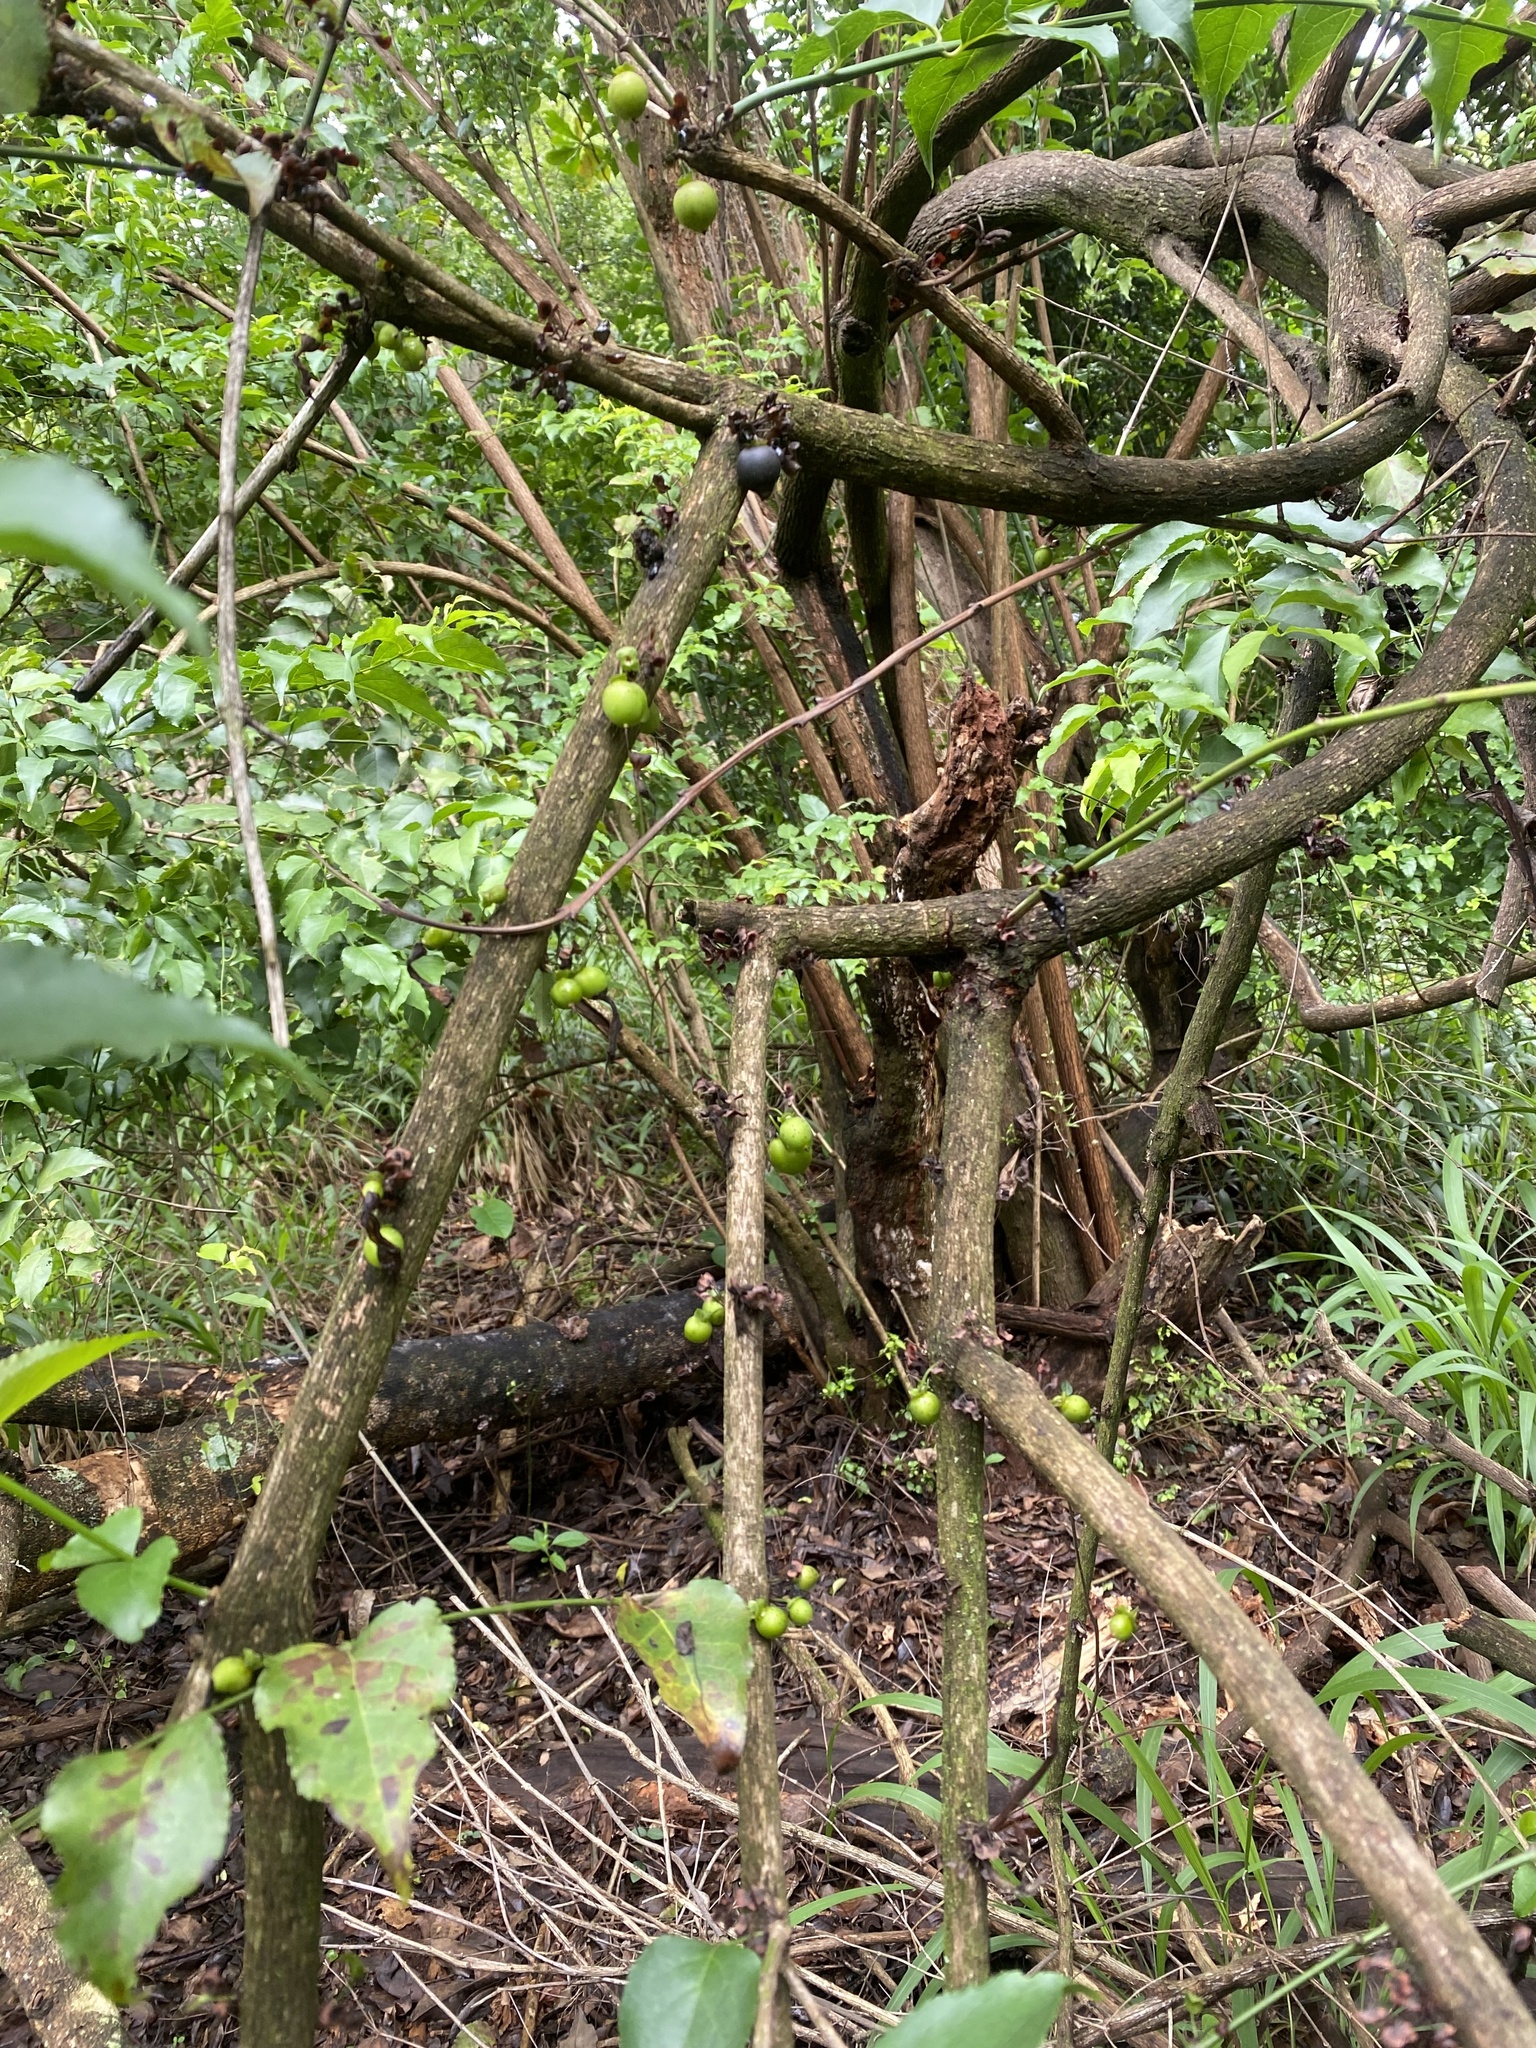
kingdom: Plantae
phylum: Tracheophyta
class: Magnoliopsida
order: Lamiales
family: Stilbaceae
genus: Halleria
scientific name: Halleria lucida
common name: Tree fuschia
